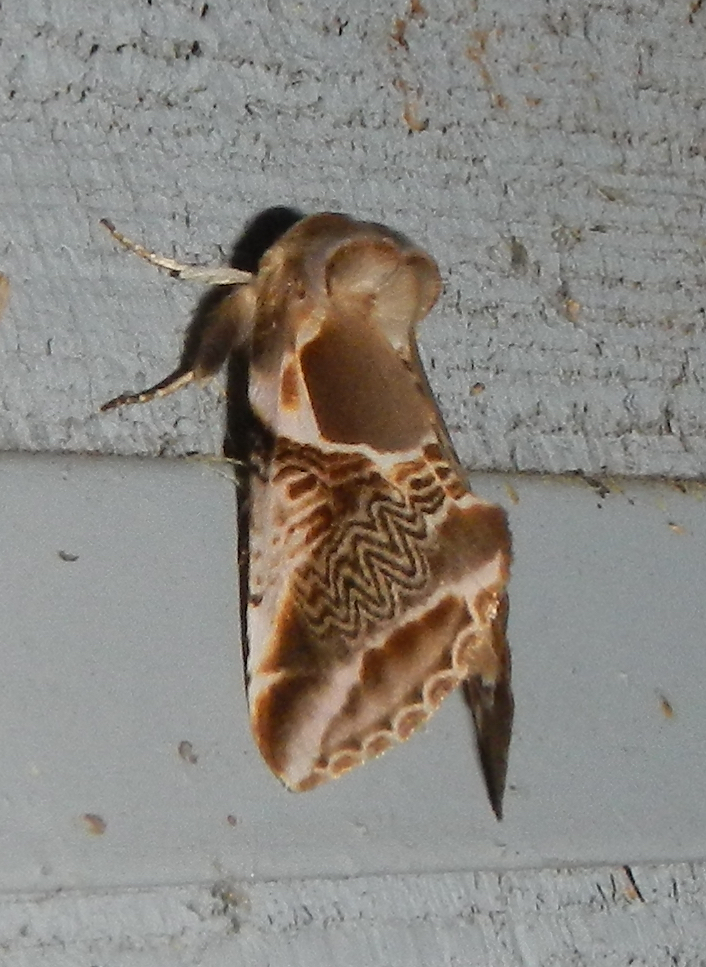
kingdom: Animalia
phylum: Arthropoda
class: Insecta
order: Lepidoptera
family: Drepanidae
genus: Habrosyne
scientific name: Habrosyne scripta
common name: Lettered habrosyne moth
